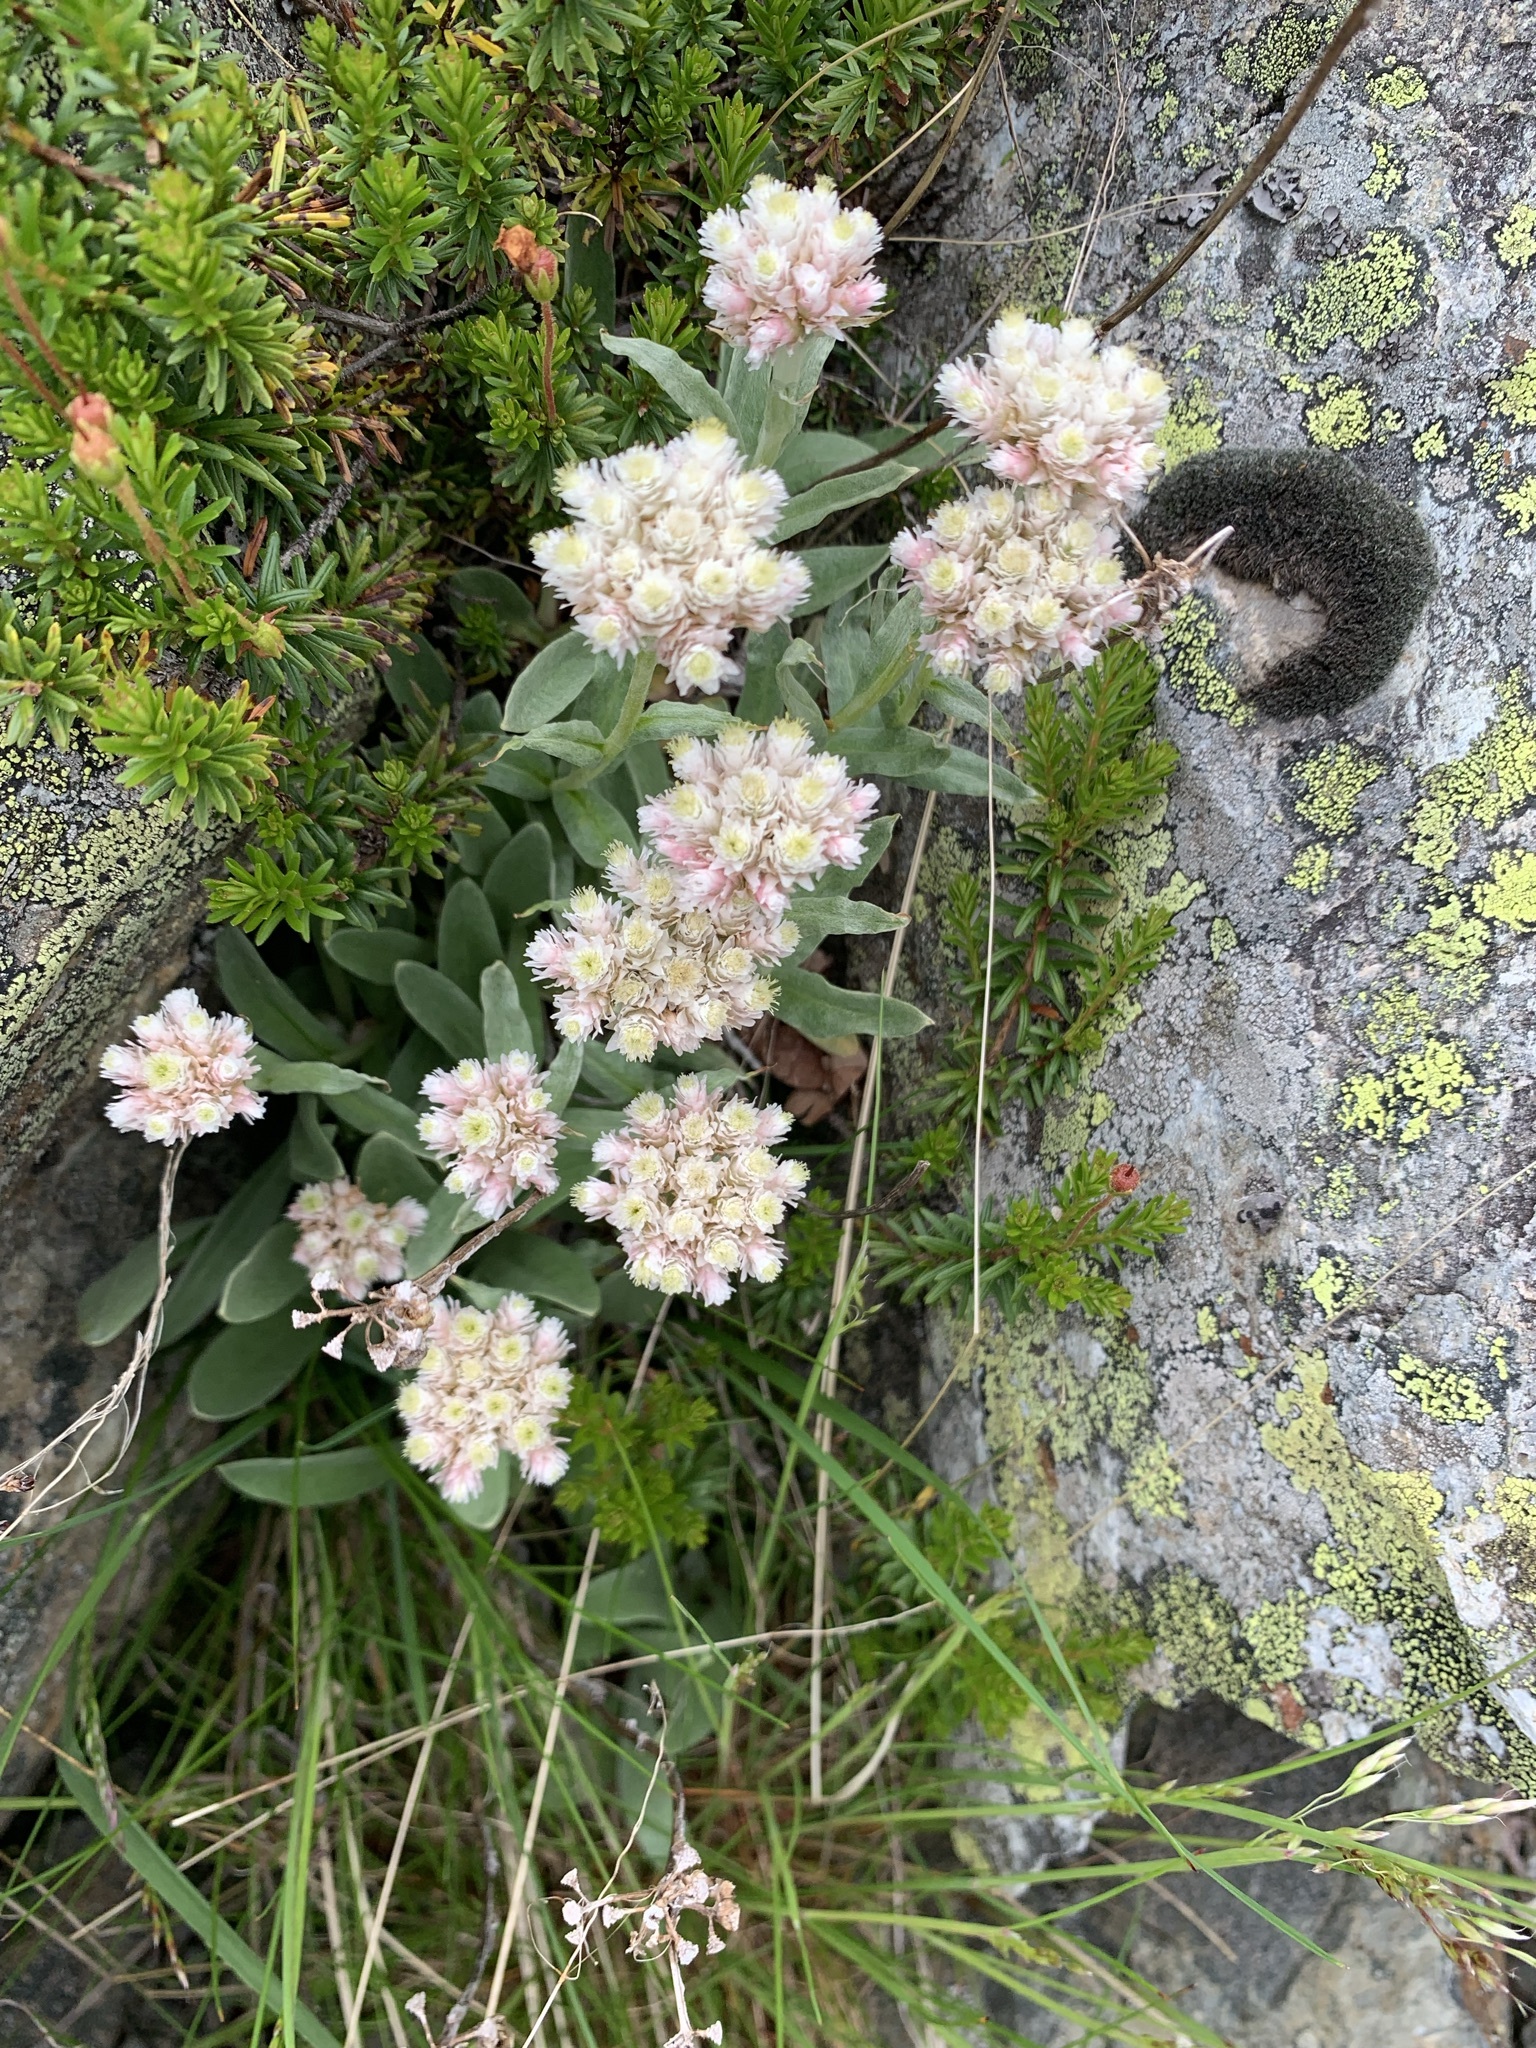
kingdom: Plantae
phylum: Tracheophyta
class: Magnoliopsida
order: Asterales
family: Asteraceae
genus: Anaphalis
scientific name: Anaphalis alpicola
